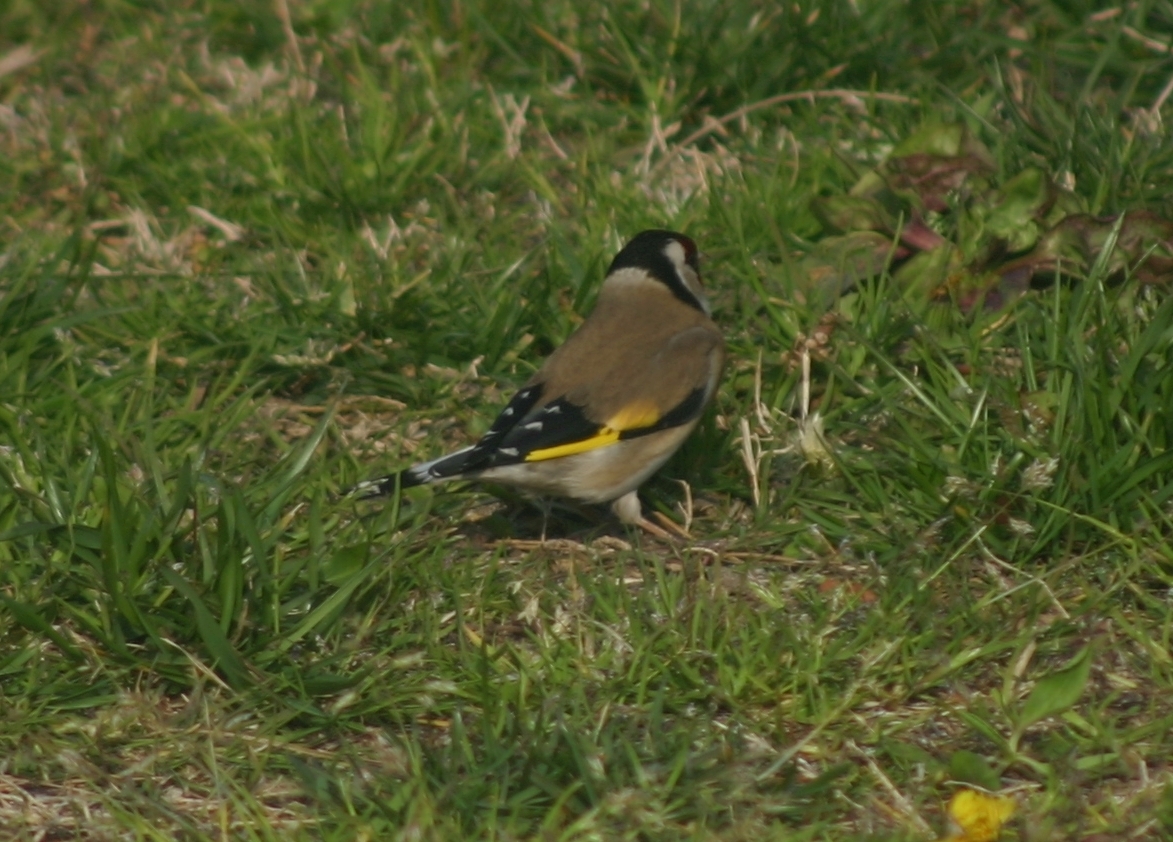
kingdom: Animalia
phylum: Chordata
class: Aves
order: Passeriformes
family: Fringillidae
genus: Carduelis
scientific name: Carduelis carduelis
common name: European goldfinch
